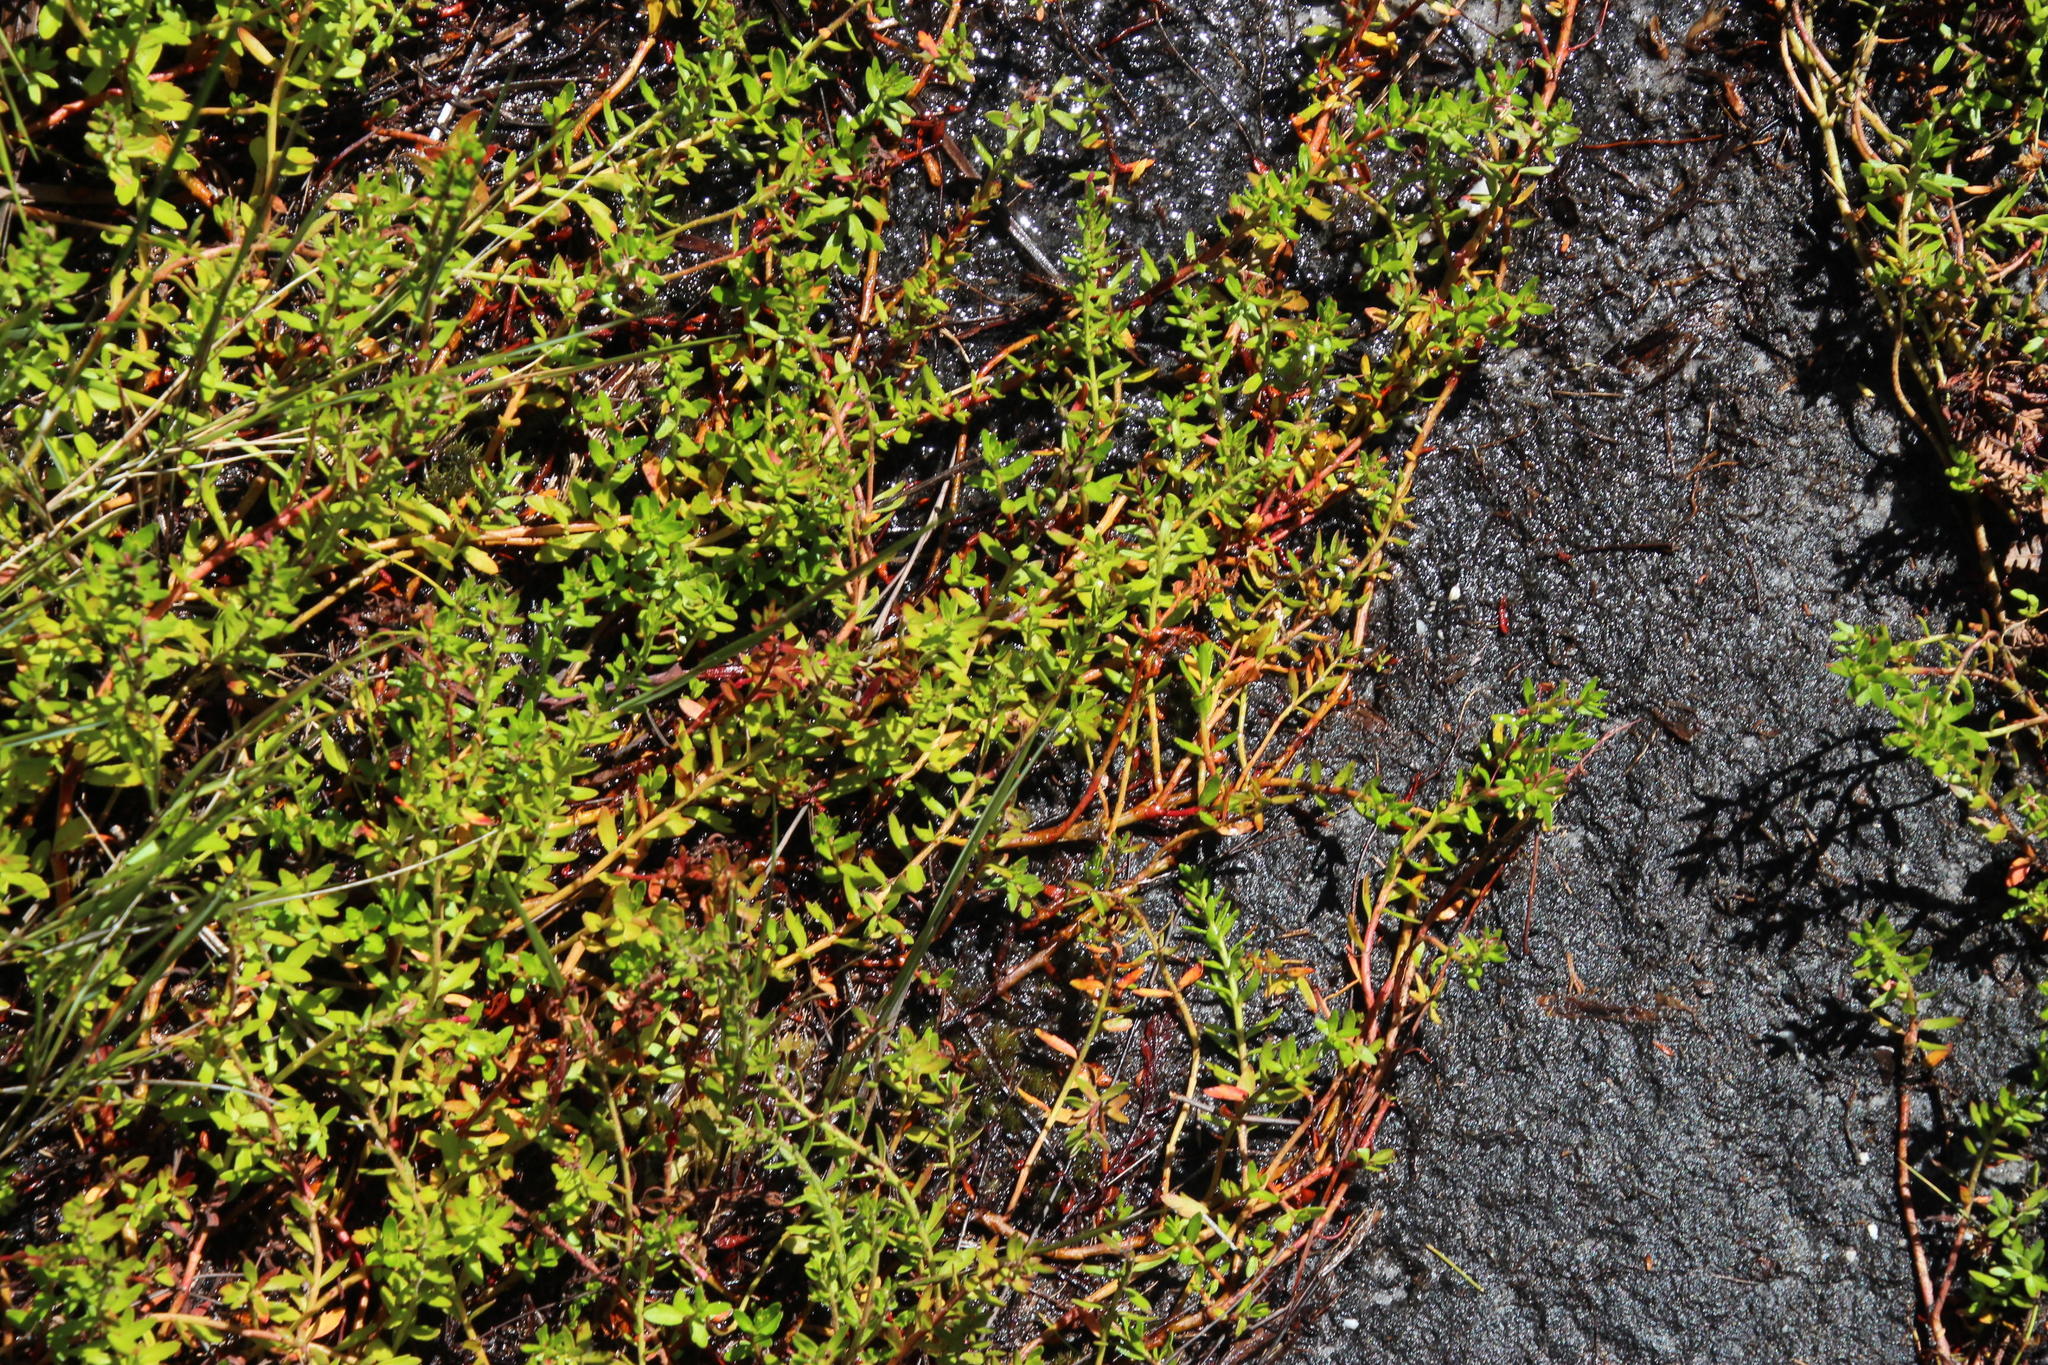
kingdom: Plantae
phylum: Tracheophyta
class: Magnoliopsida
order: Saxifragales
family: Haloragaceae
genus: Laurembergia
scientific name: Laurembergia repens
